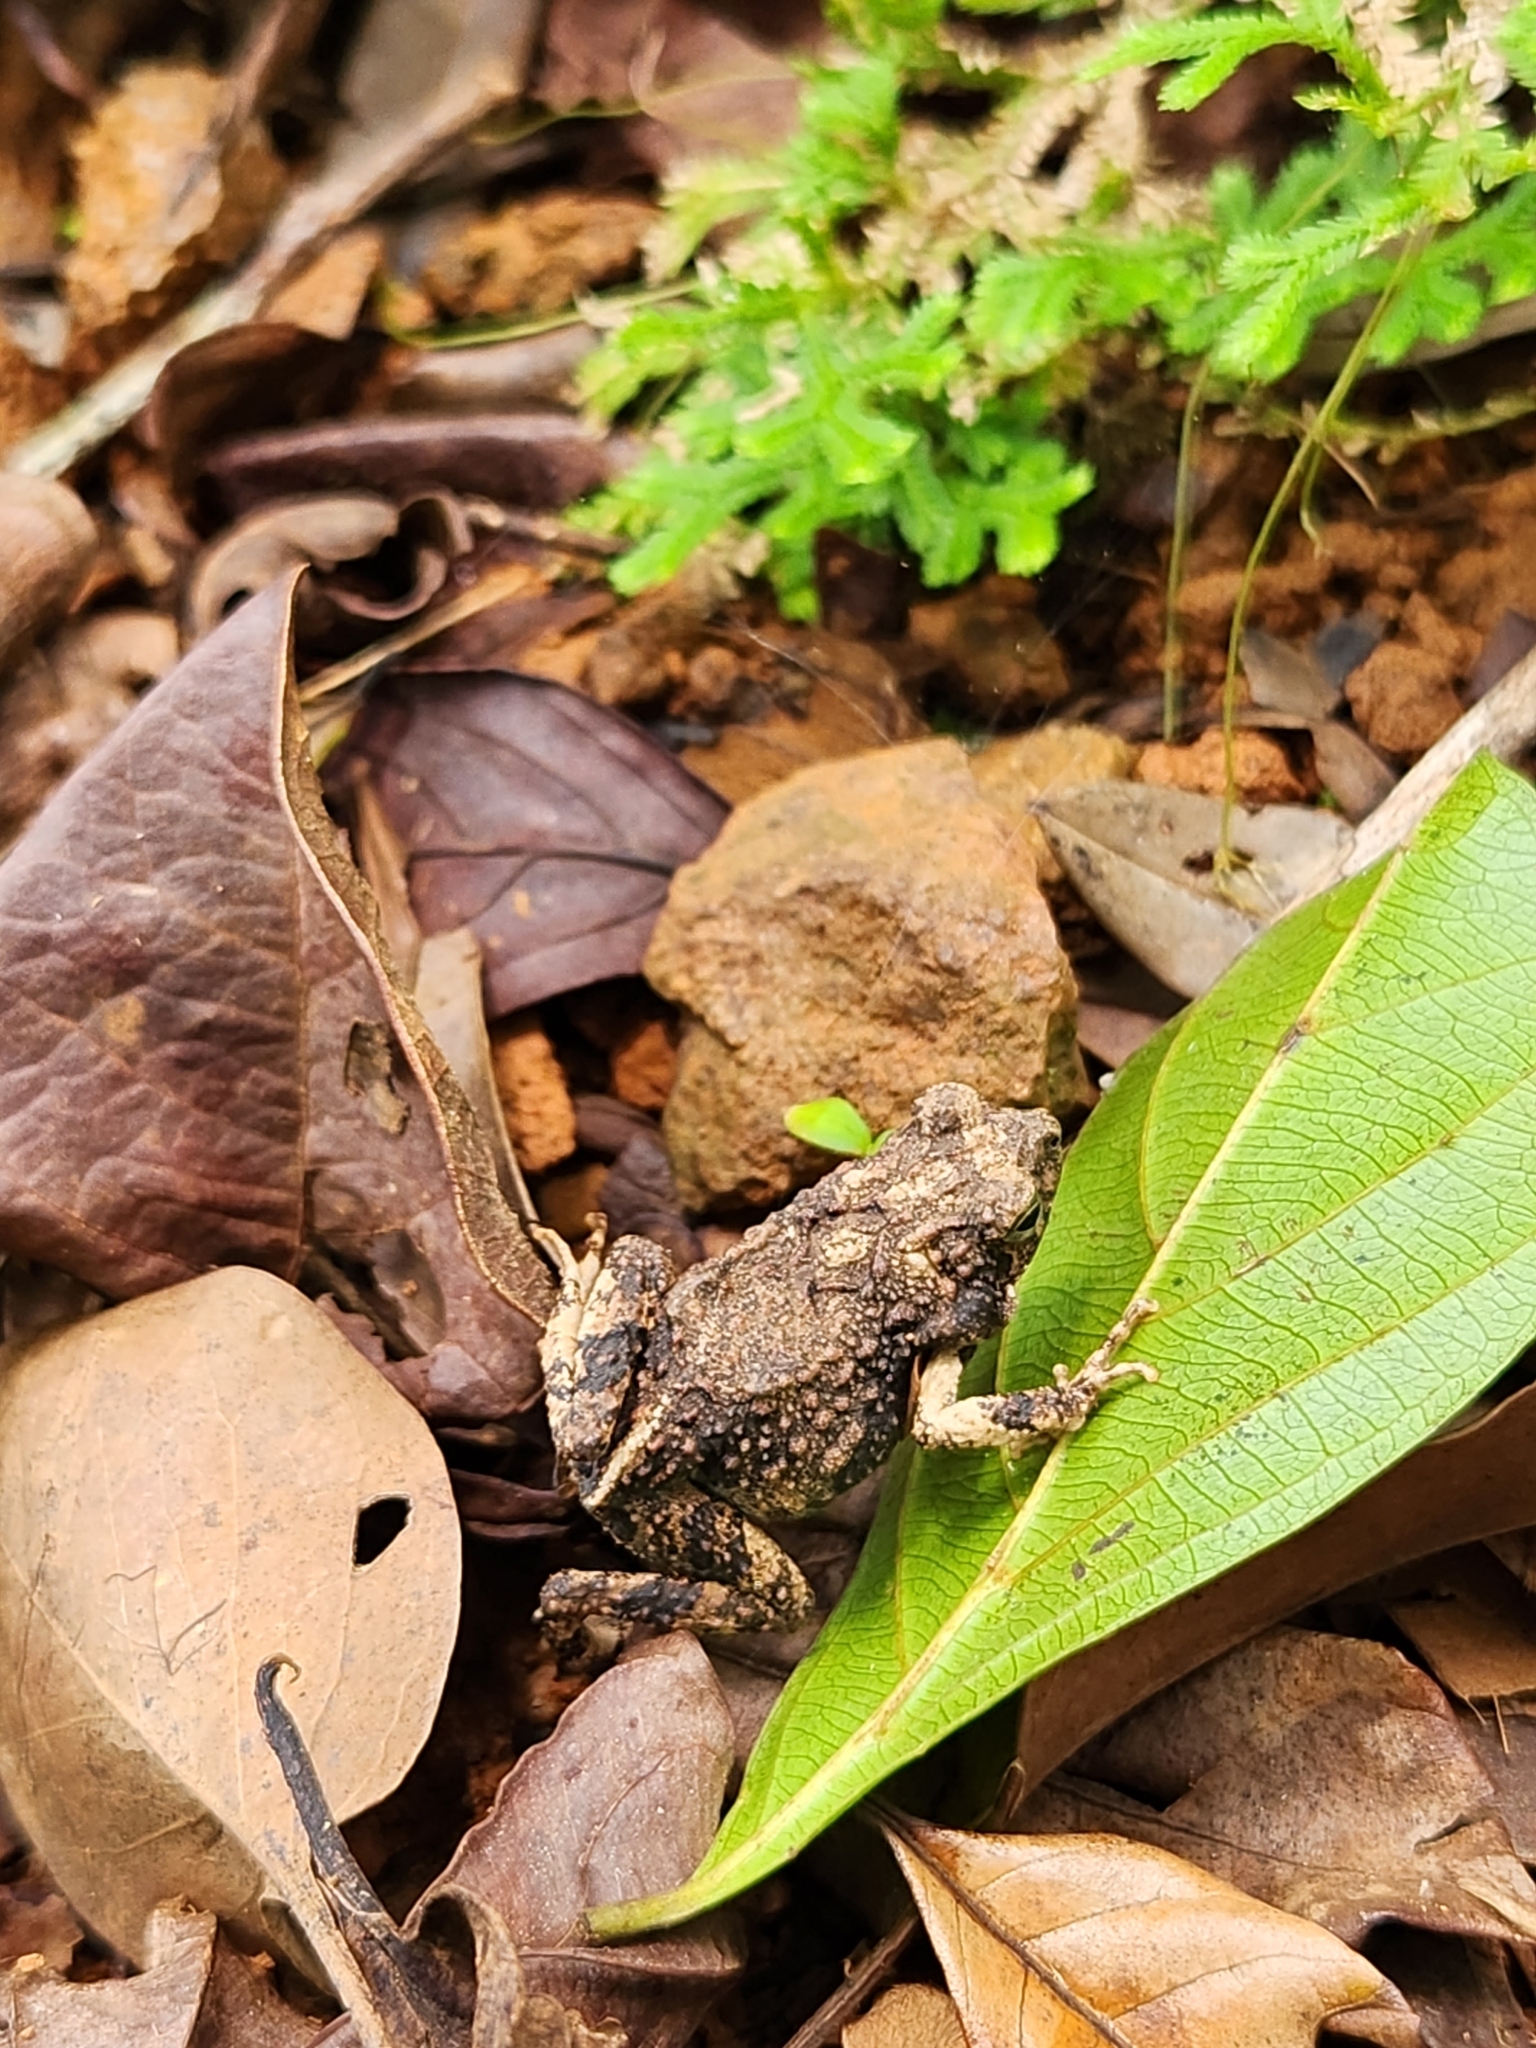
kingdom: Animalia
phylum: Chordata
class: Amphibia
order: Anura
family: Leptodactylidae
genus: Engystomops
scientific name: Engystomops pustulosus
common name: Tungara frog
